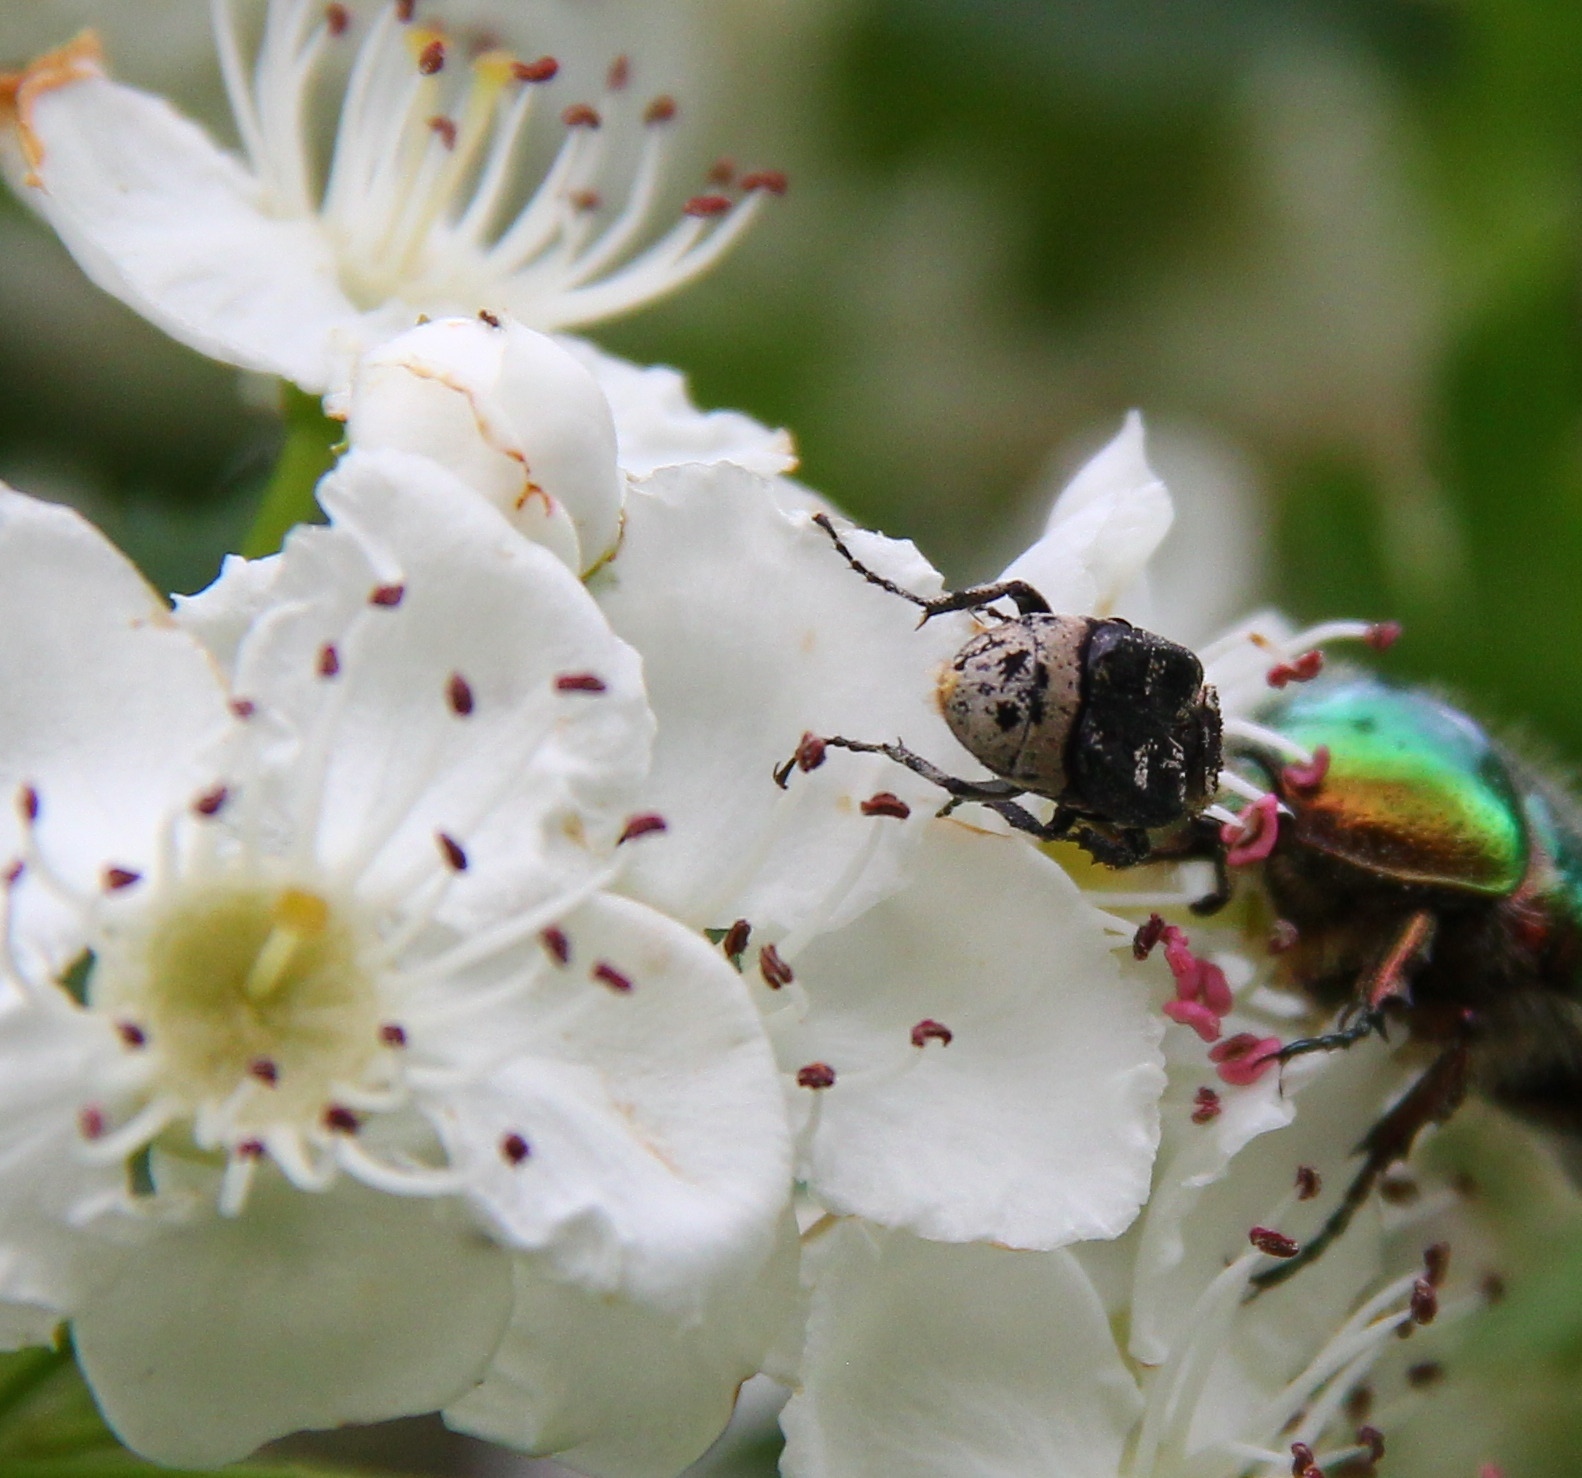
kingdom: Animalia
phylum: Arthropoda
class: Insecta
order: Coleoptera
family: Scarabaeidae
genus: Valgus
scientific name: Valgus hemipterus
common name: Bug flower chafer
